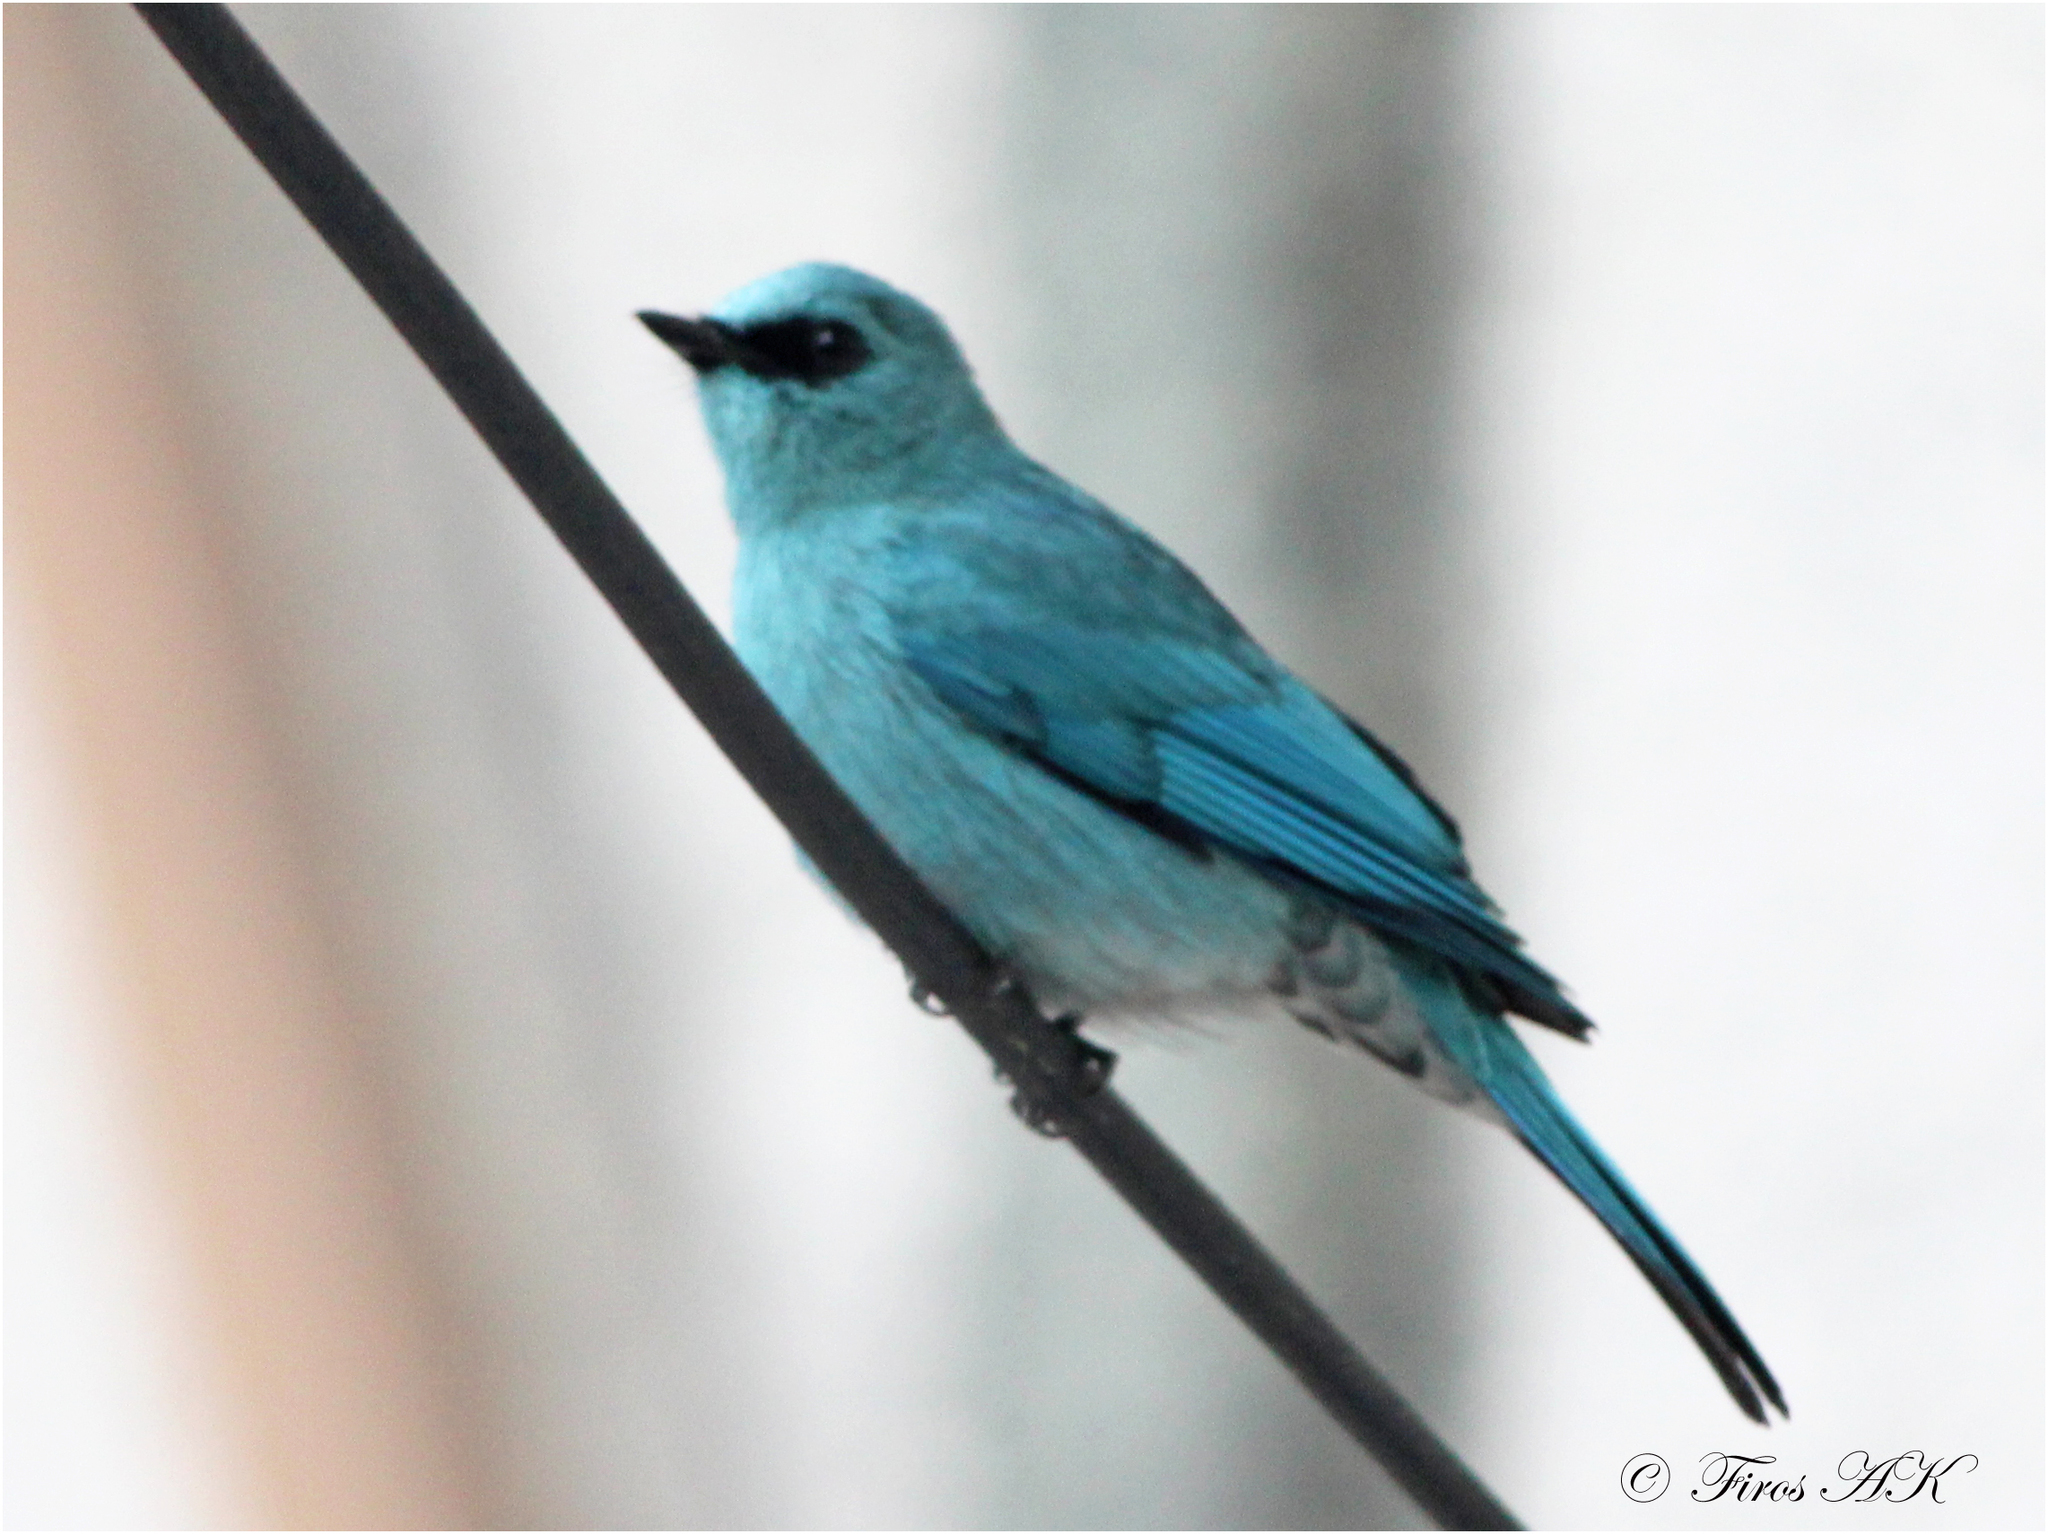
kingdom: Animalia
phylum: Chordata
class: Aves
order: Passeriformes
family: Muscicapidae
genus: Eumyias
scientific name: Eumyias thalassinus
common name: Verditer flycatcher
